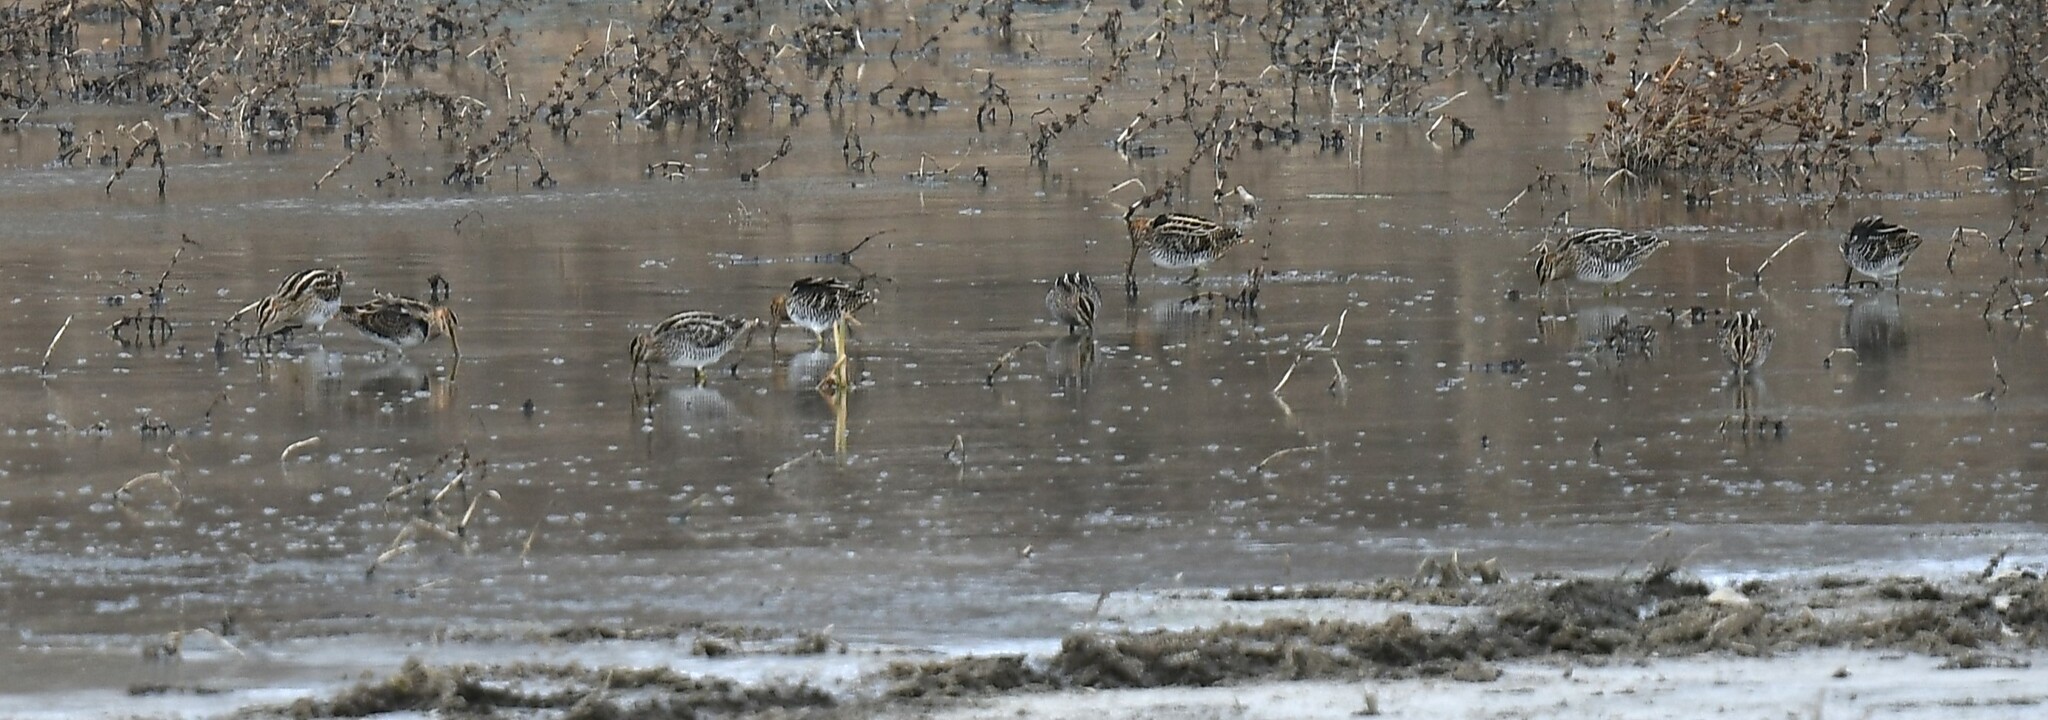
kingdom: Animalia
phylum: Chordata
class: Aves
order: Charadriiformes
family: Scolopacidae
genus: Gallinago
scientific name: Gallinago delicata
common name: Wilson's snipe
